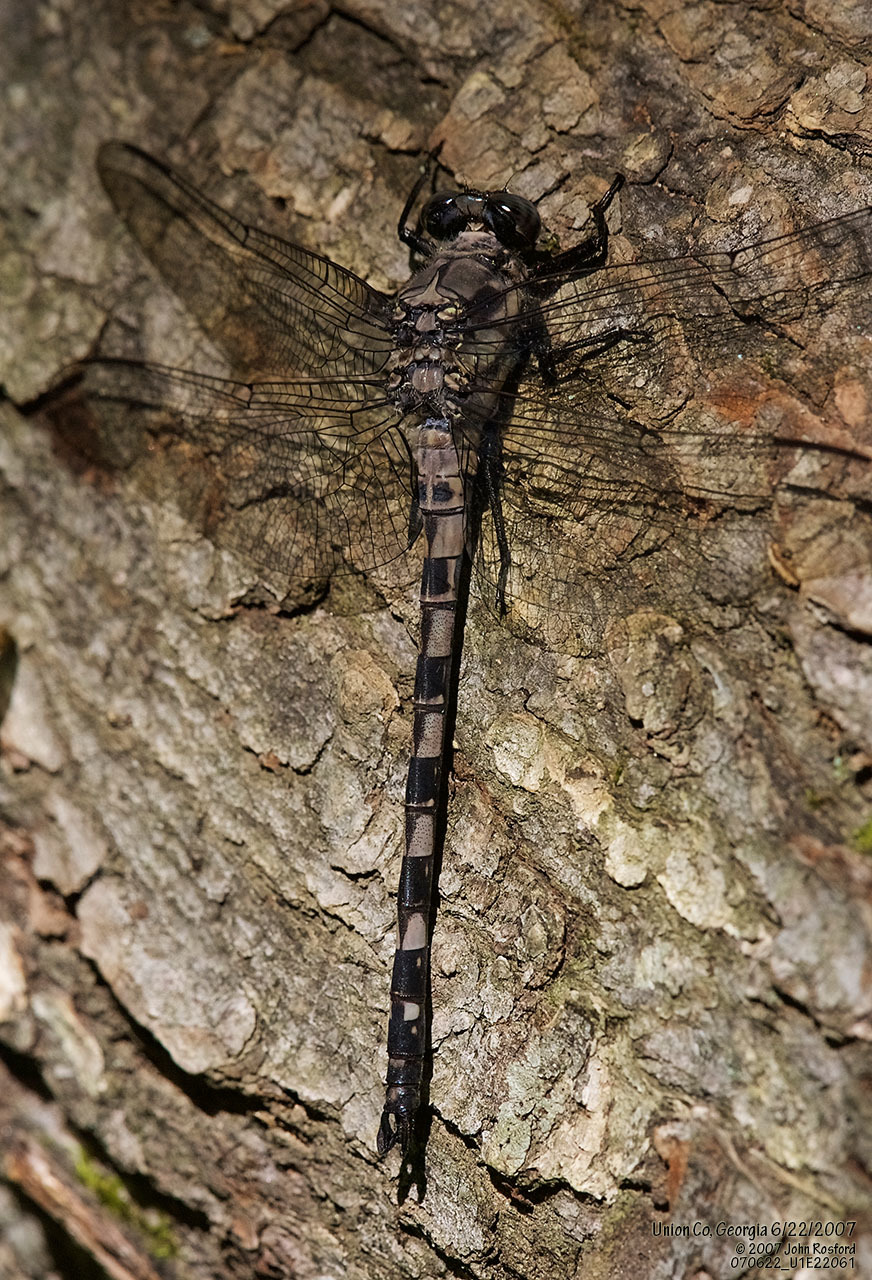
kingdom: Animalia
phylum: Arthropoda
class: Insecta
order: Odonata
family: Petaluridae
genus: Tachopteryx
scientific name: Tachopteryx thoreyi
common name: Gray petaltail
